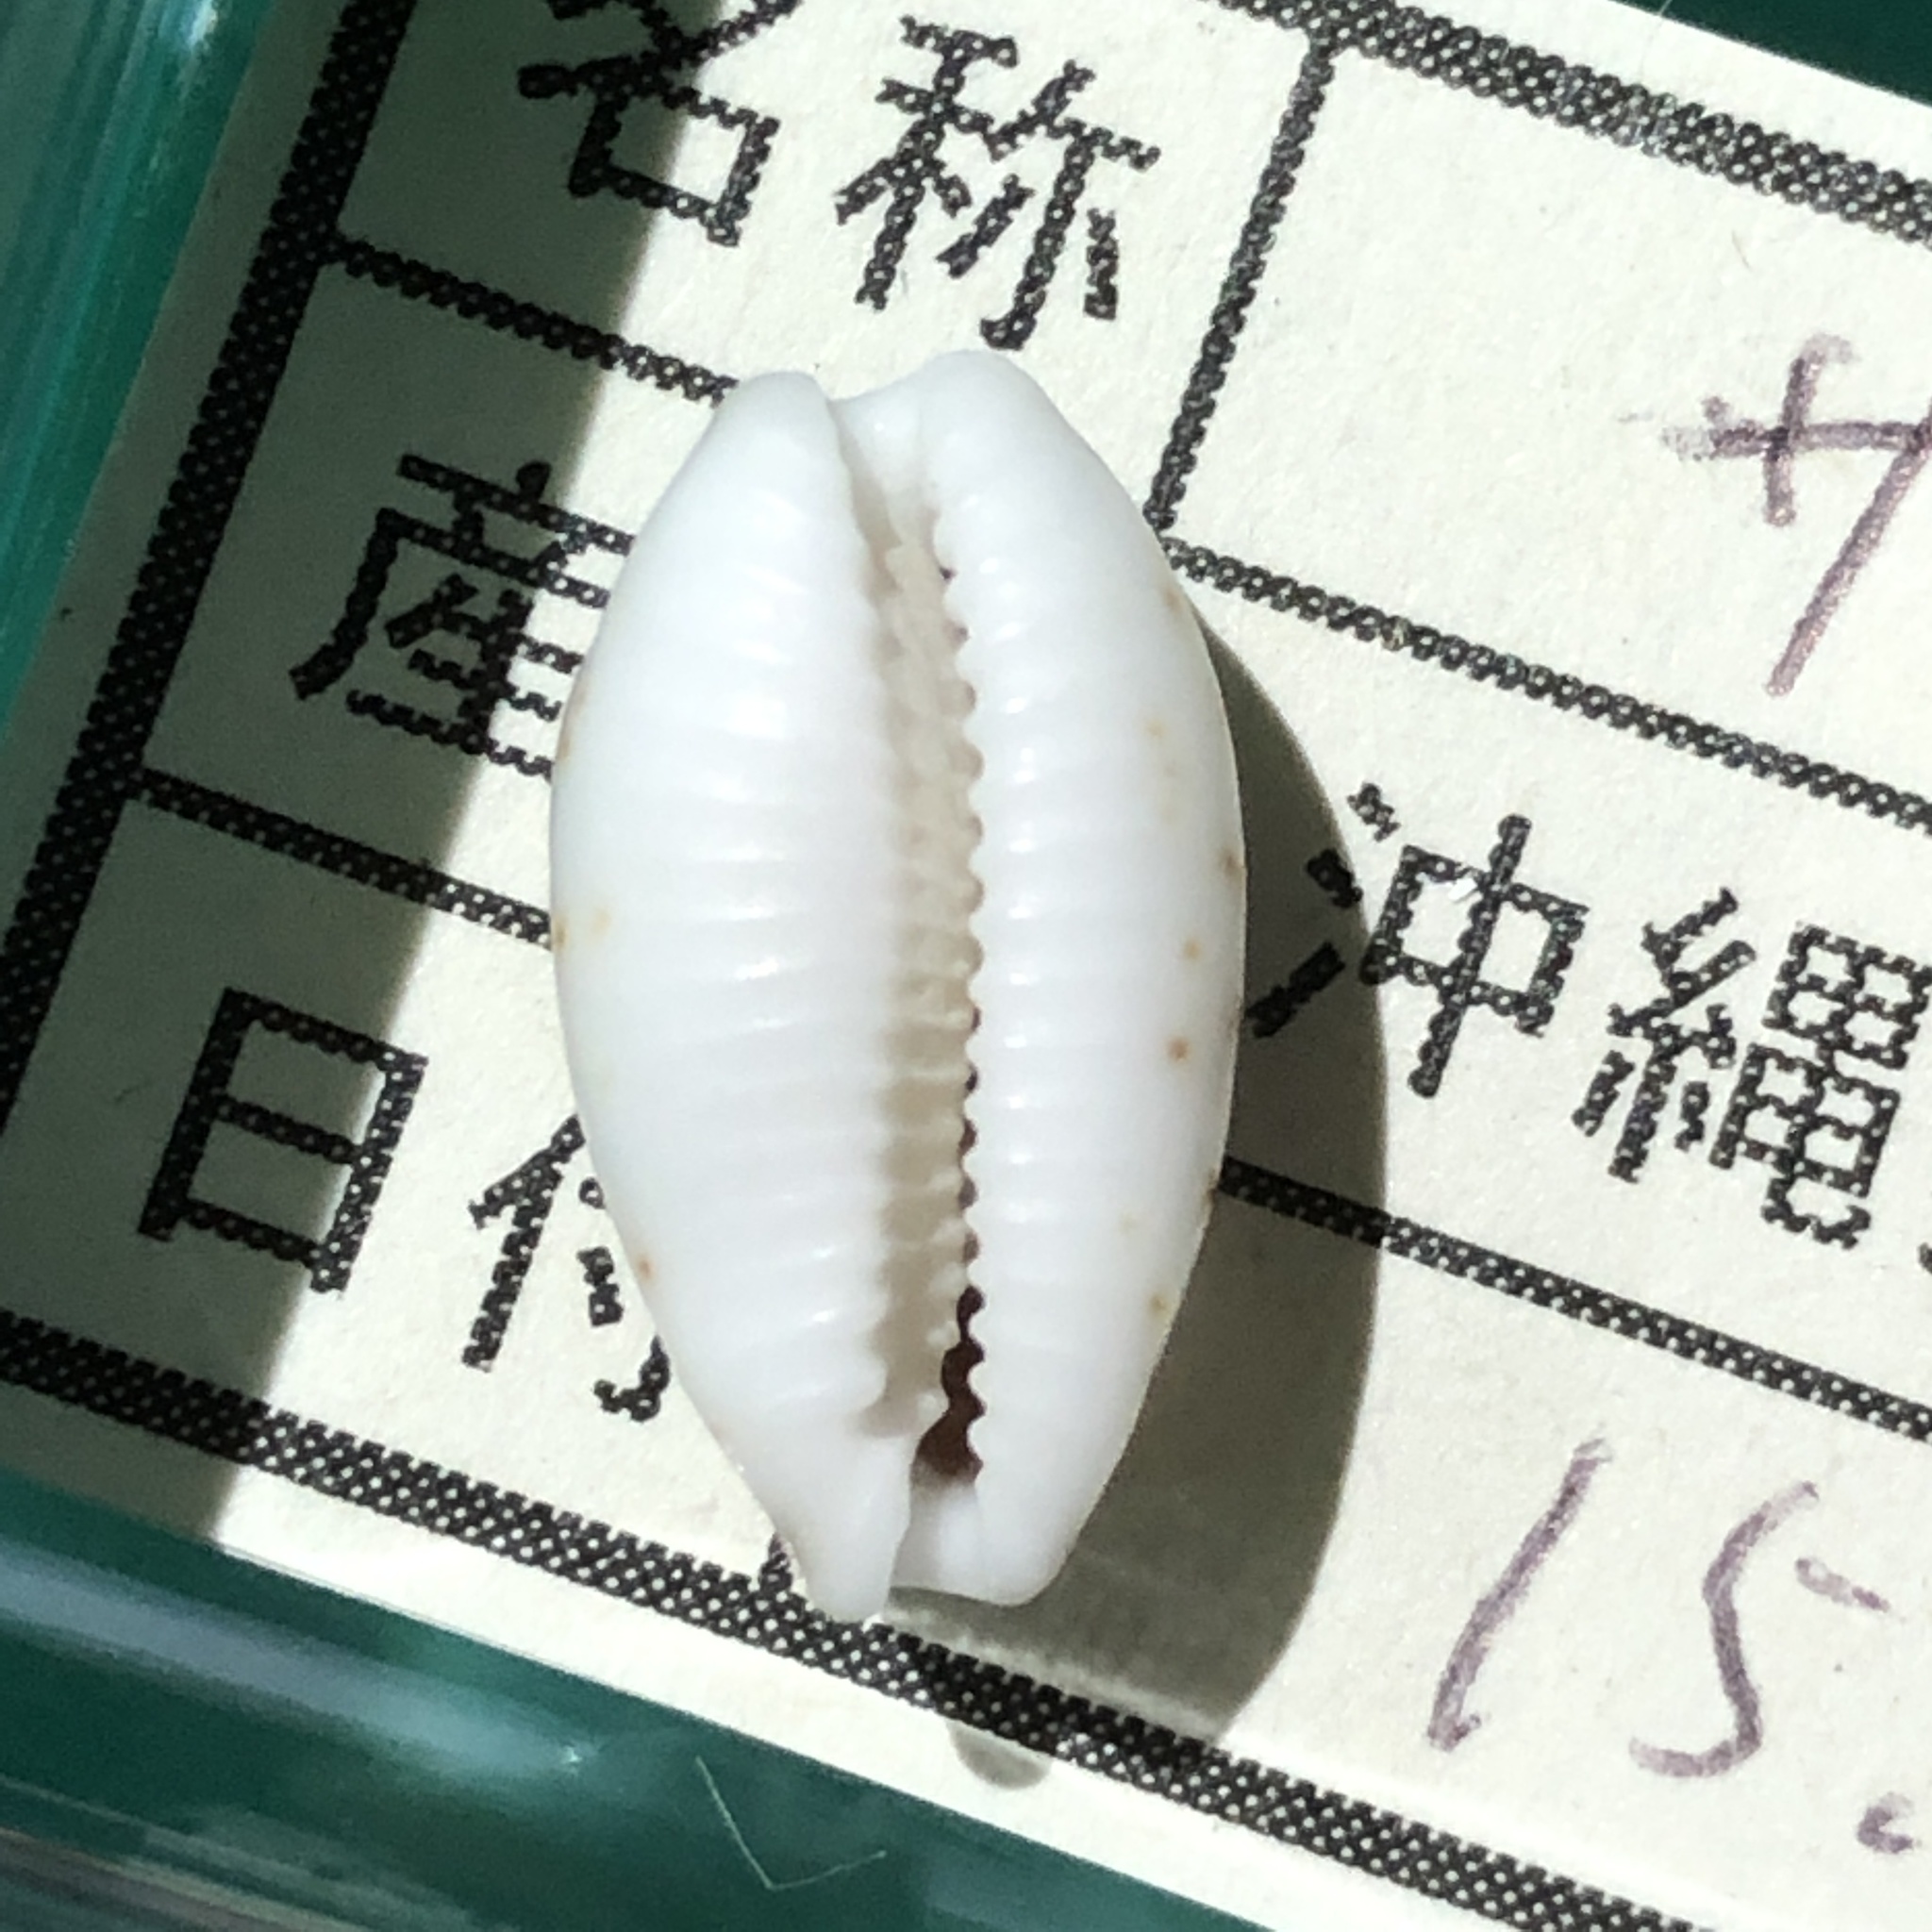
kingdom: Animalia
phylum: Mollusca
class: Gastropoda
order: Littorinimorpha
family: Cypraeidae
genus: Bistolida
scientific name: Bistolida hirundo
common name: Cowrie
